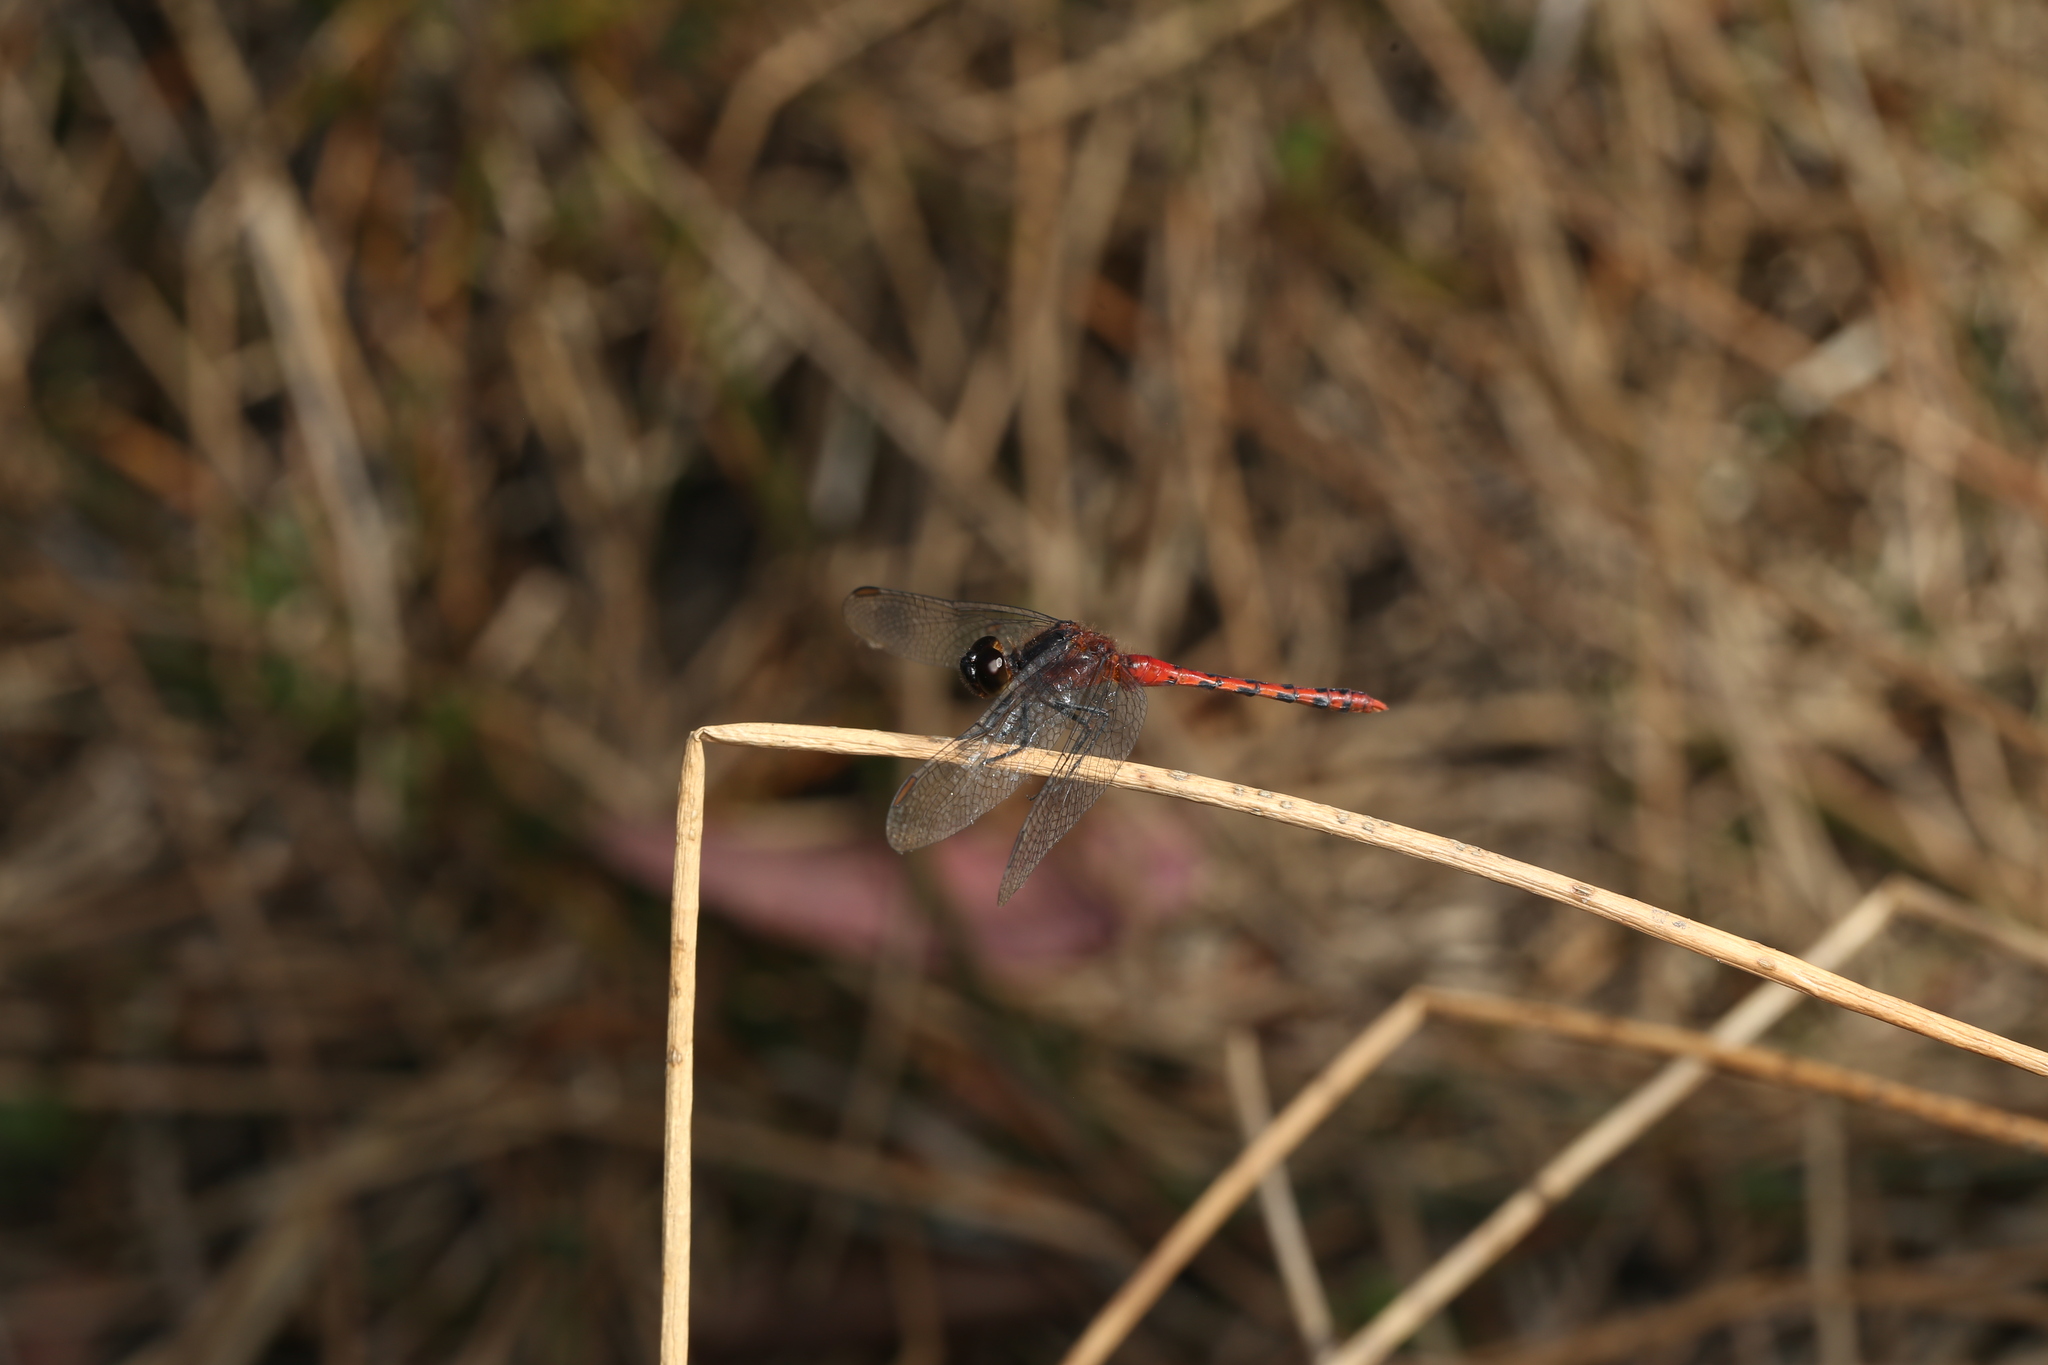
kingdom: Animalia
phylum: Arthropoda
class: Insecta
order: Odonata
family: Libellulidae
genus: Diplacodes
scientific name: Diplacodes melanopsis
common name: Black-faced percher
